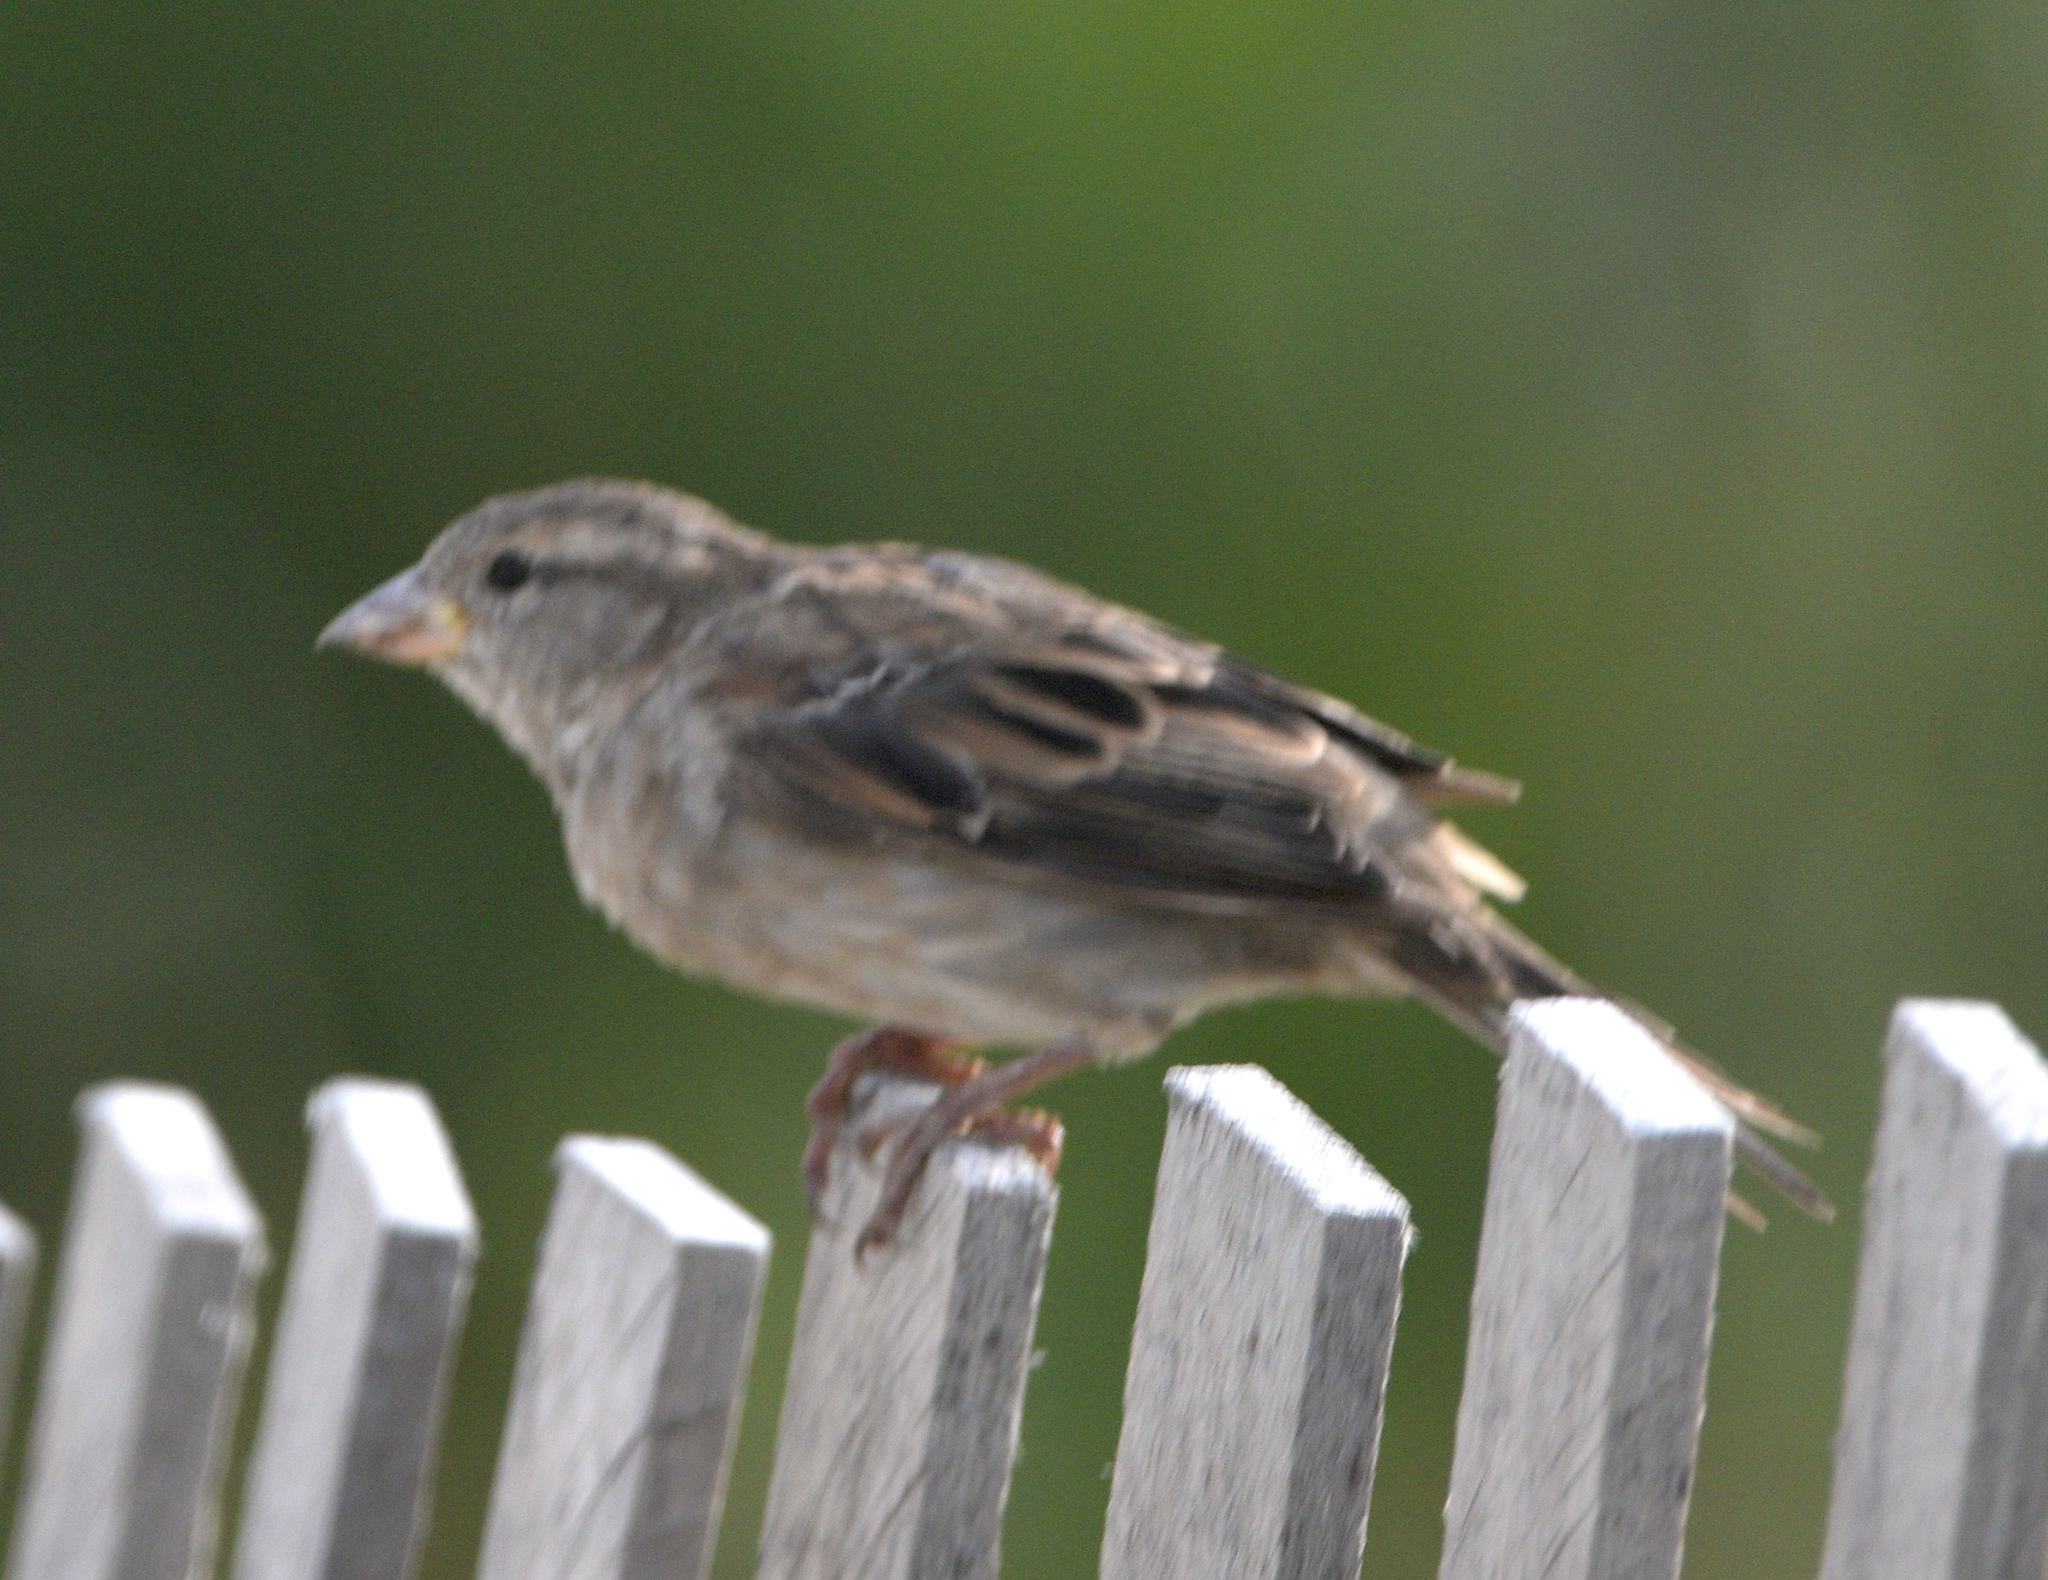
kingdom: Animalia
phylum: Chordata
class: Aves
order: Passeriformes
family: Passeridae
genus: Passer
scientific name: Passer domesticus
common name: House sparrow
